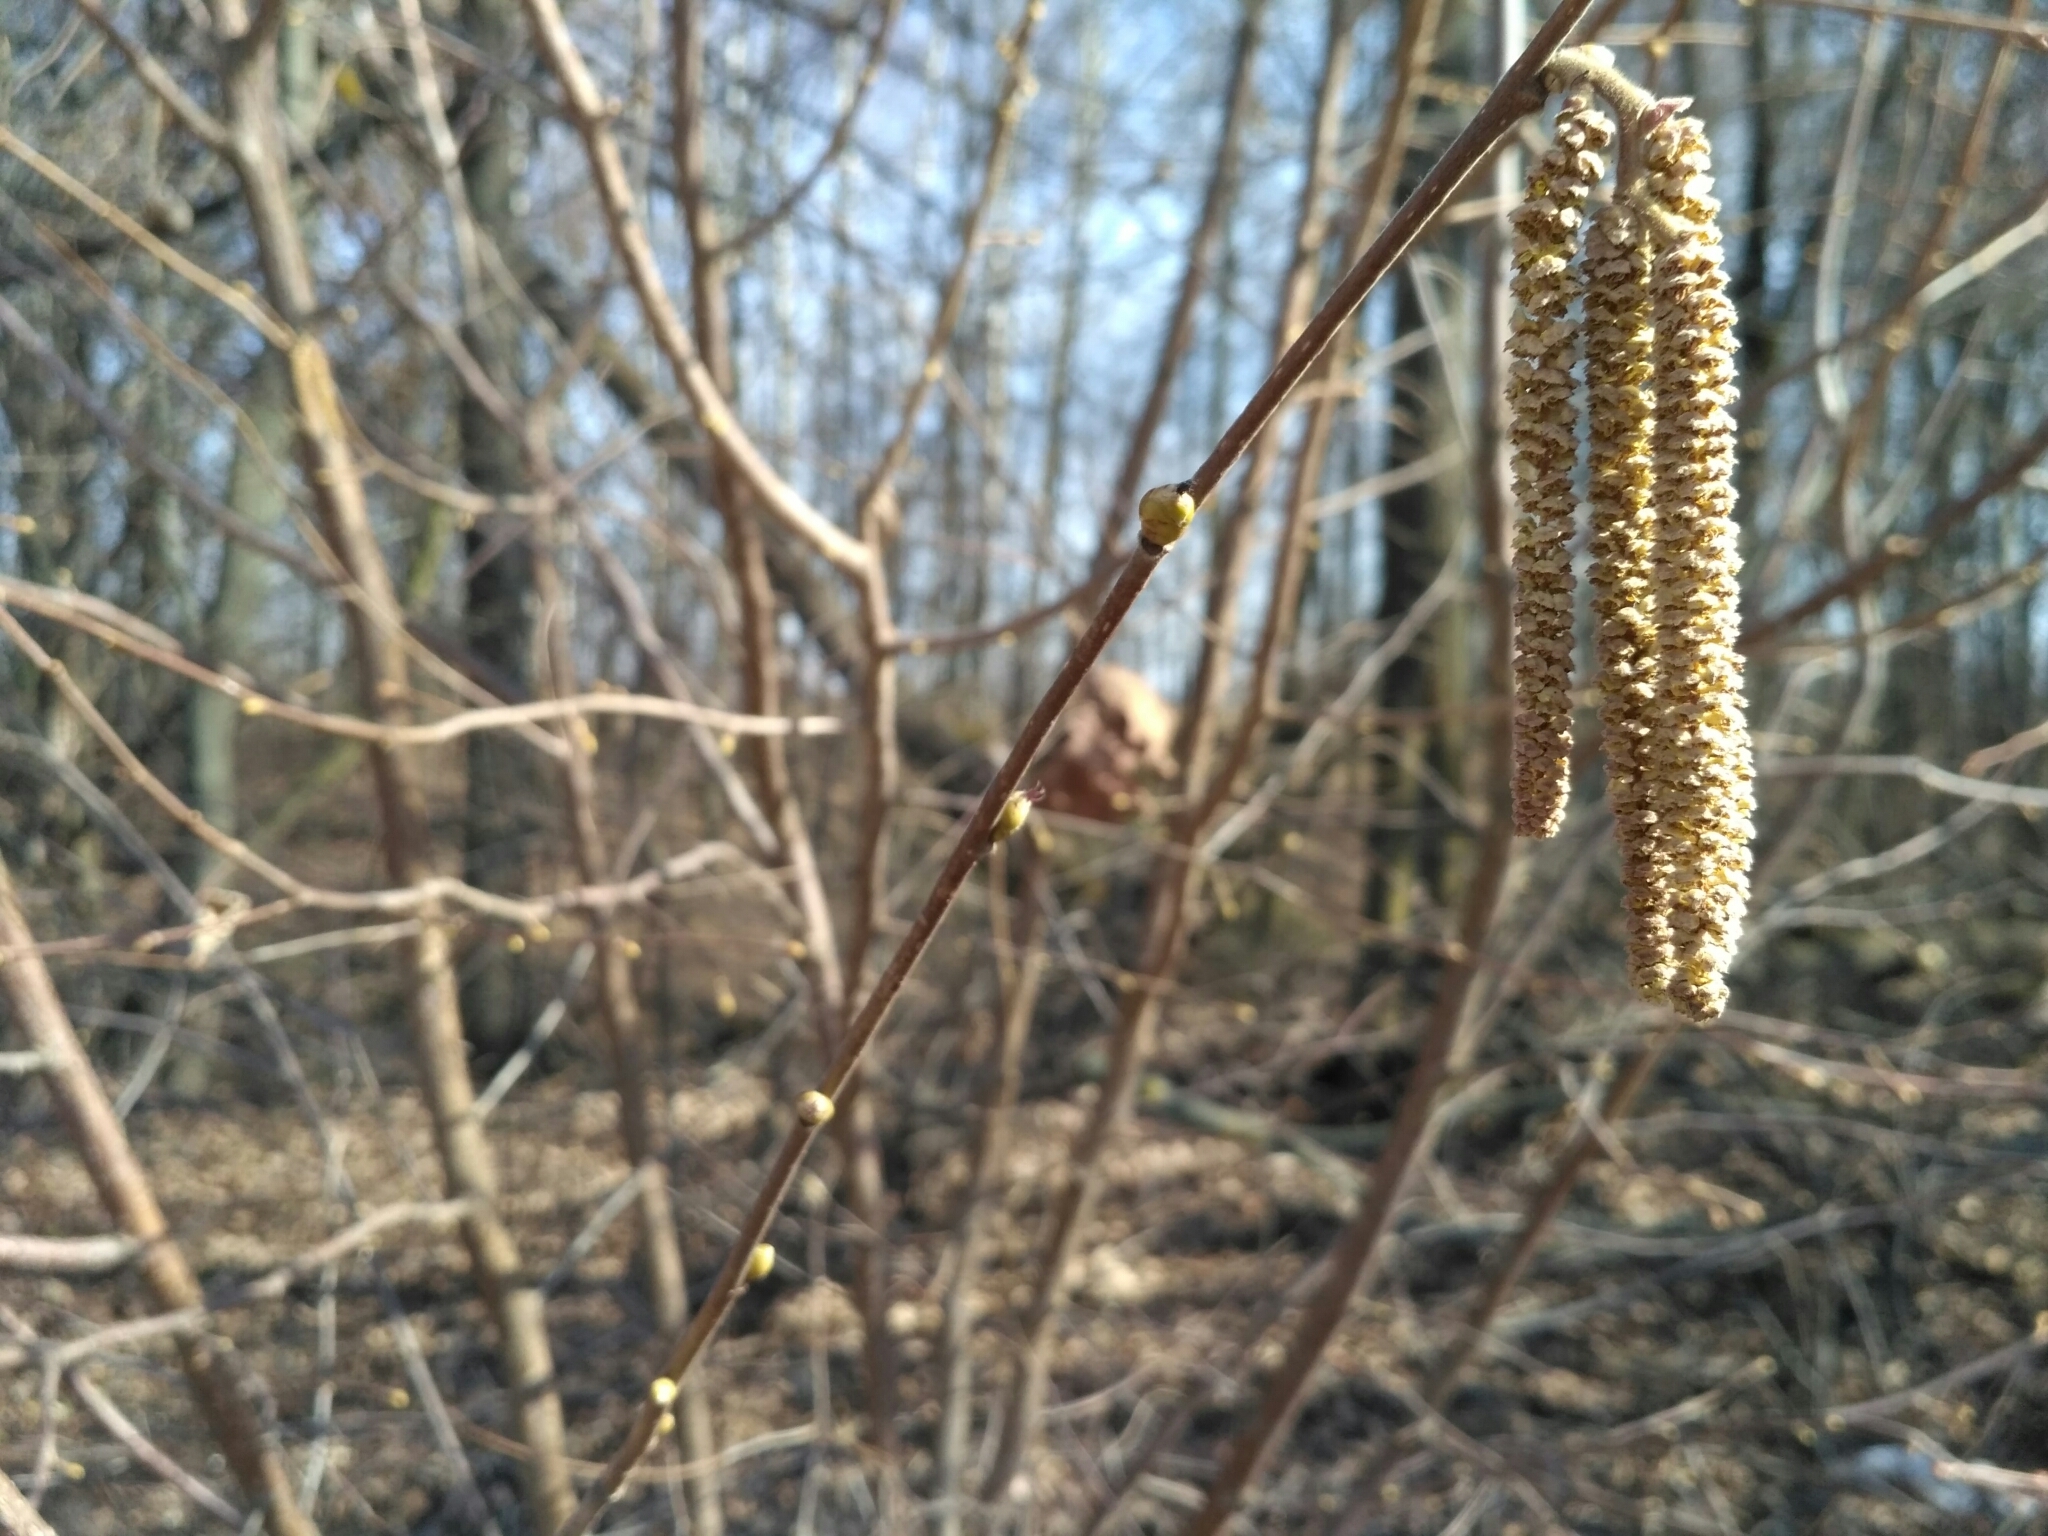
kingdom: Plantae
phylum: Tracheophyta
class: Magnoliopsida
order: Fagales
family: Betulaceae
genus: Corylus
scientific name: Corylus avellana
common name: European hazel
